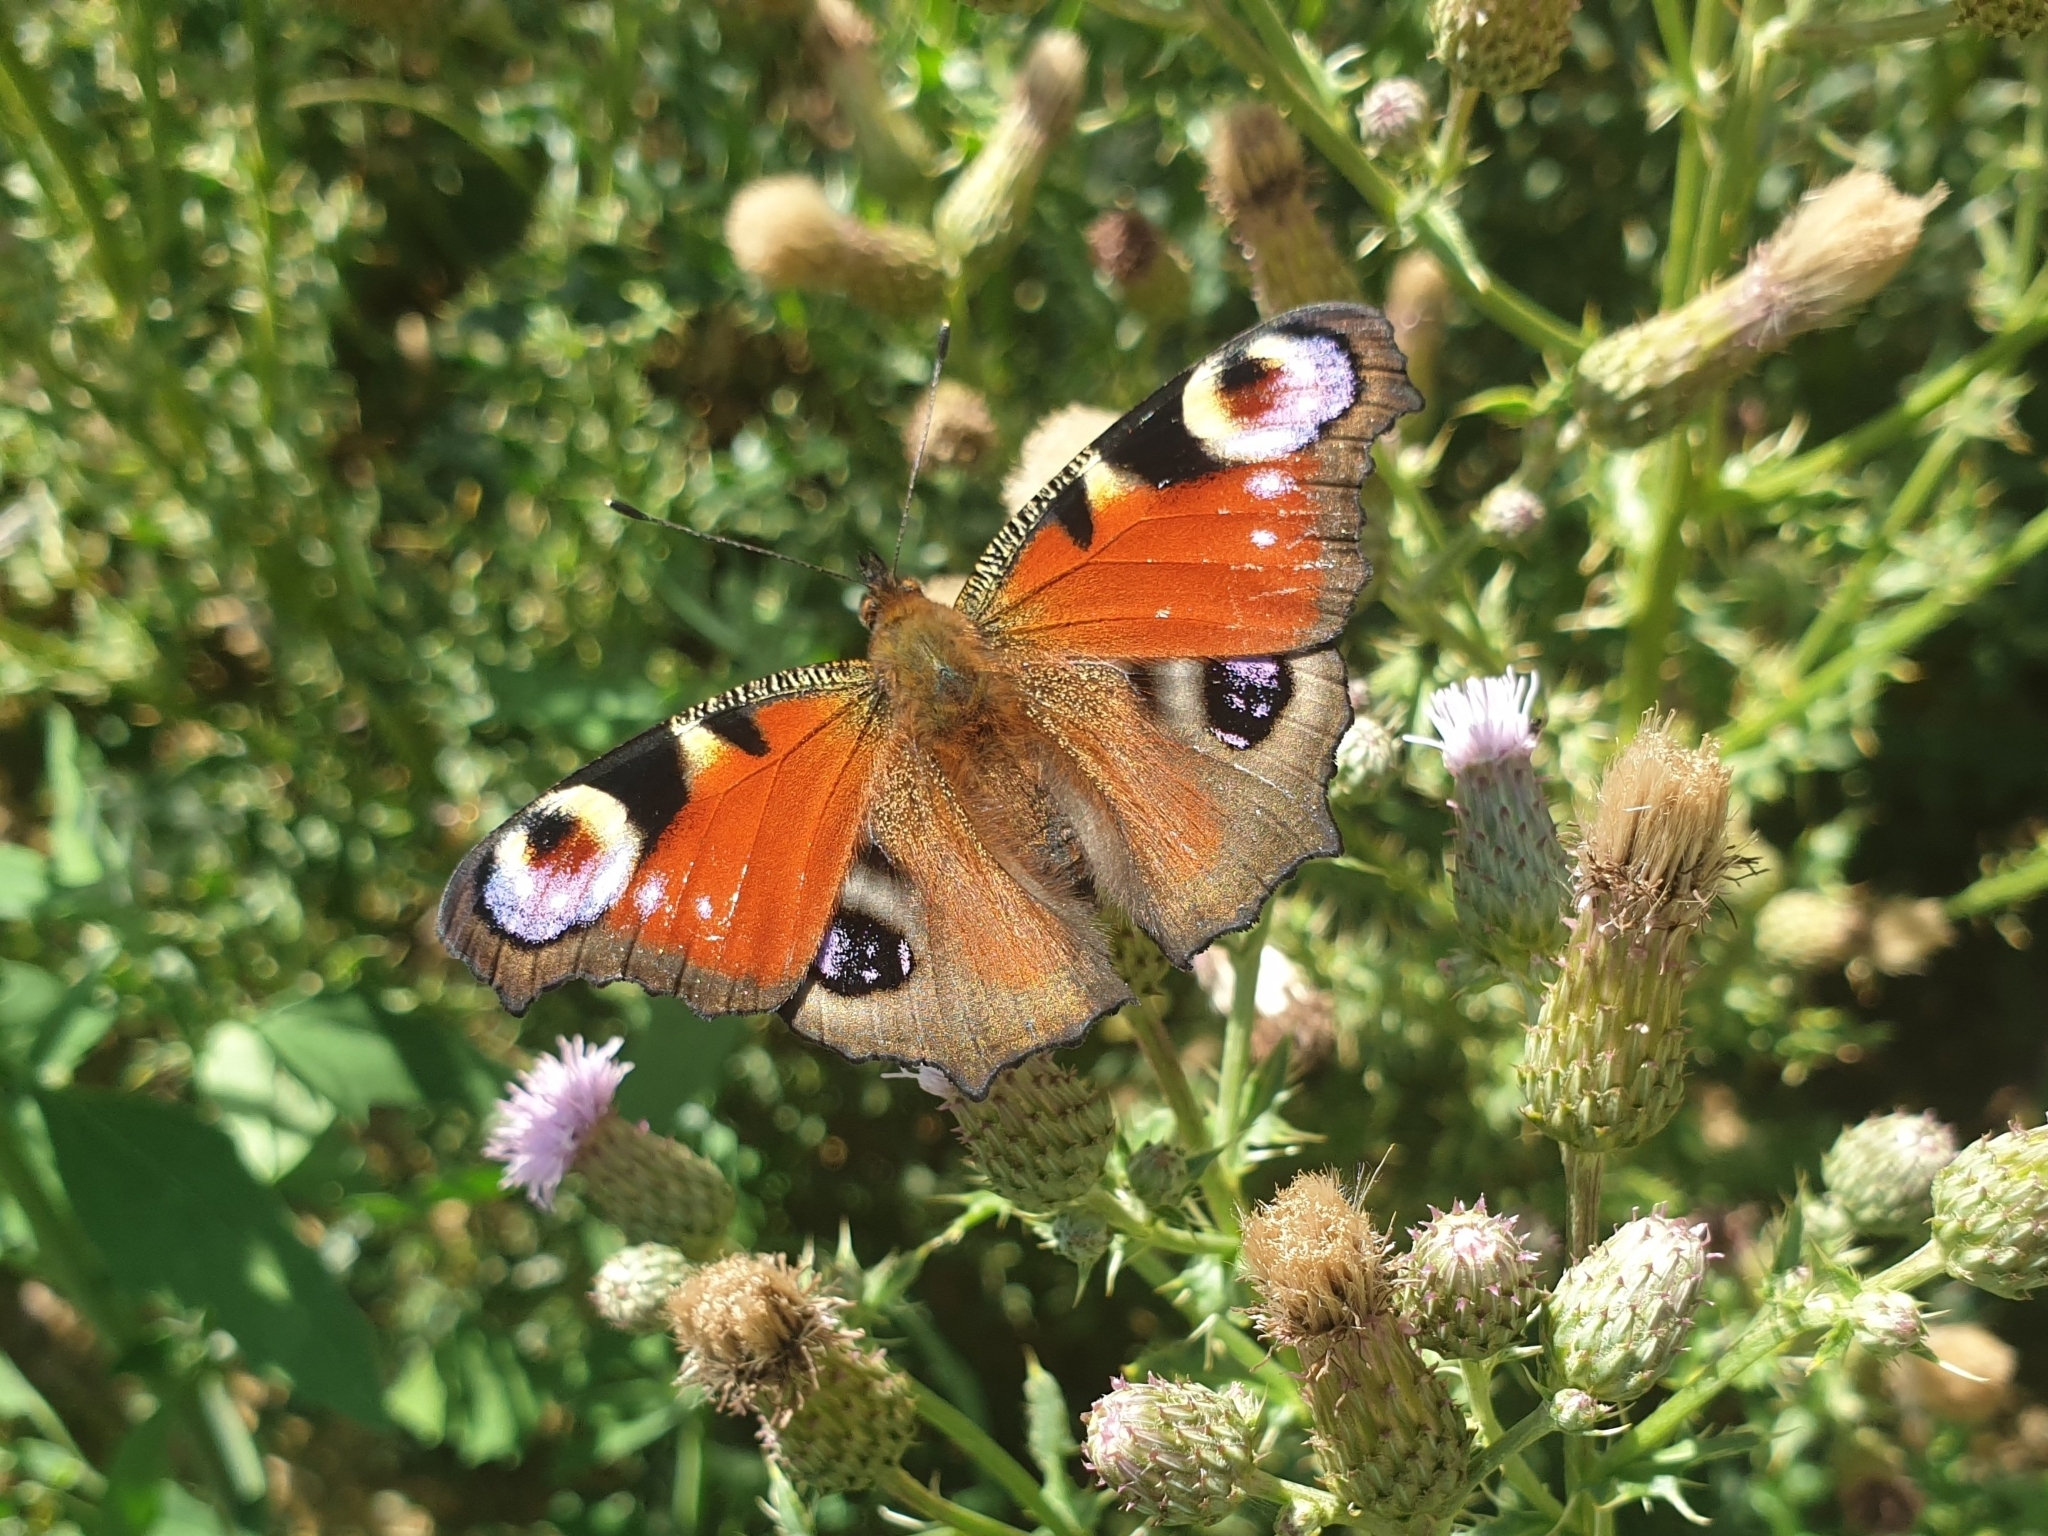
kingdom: Animalia
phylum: Arthropoda
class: Insecta
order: Lepidoptera
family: Nymphalidae
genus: Aglais
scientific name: Aglais io
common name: Peacock
